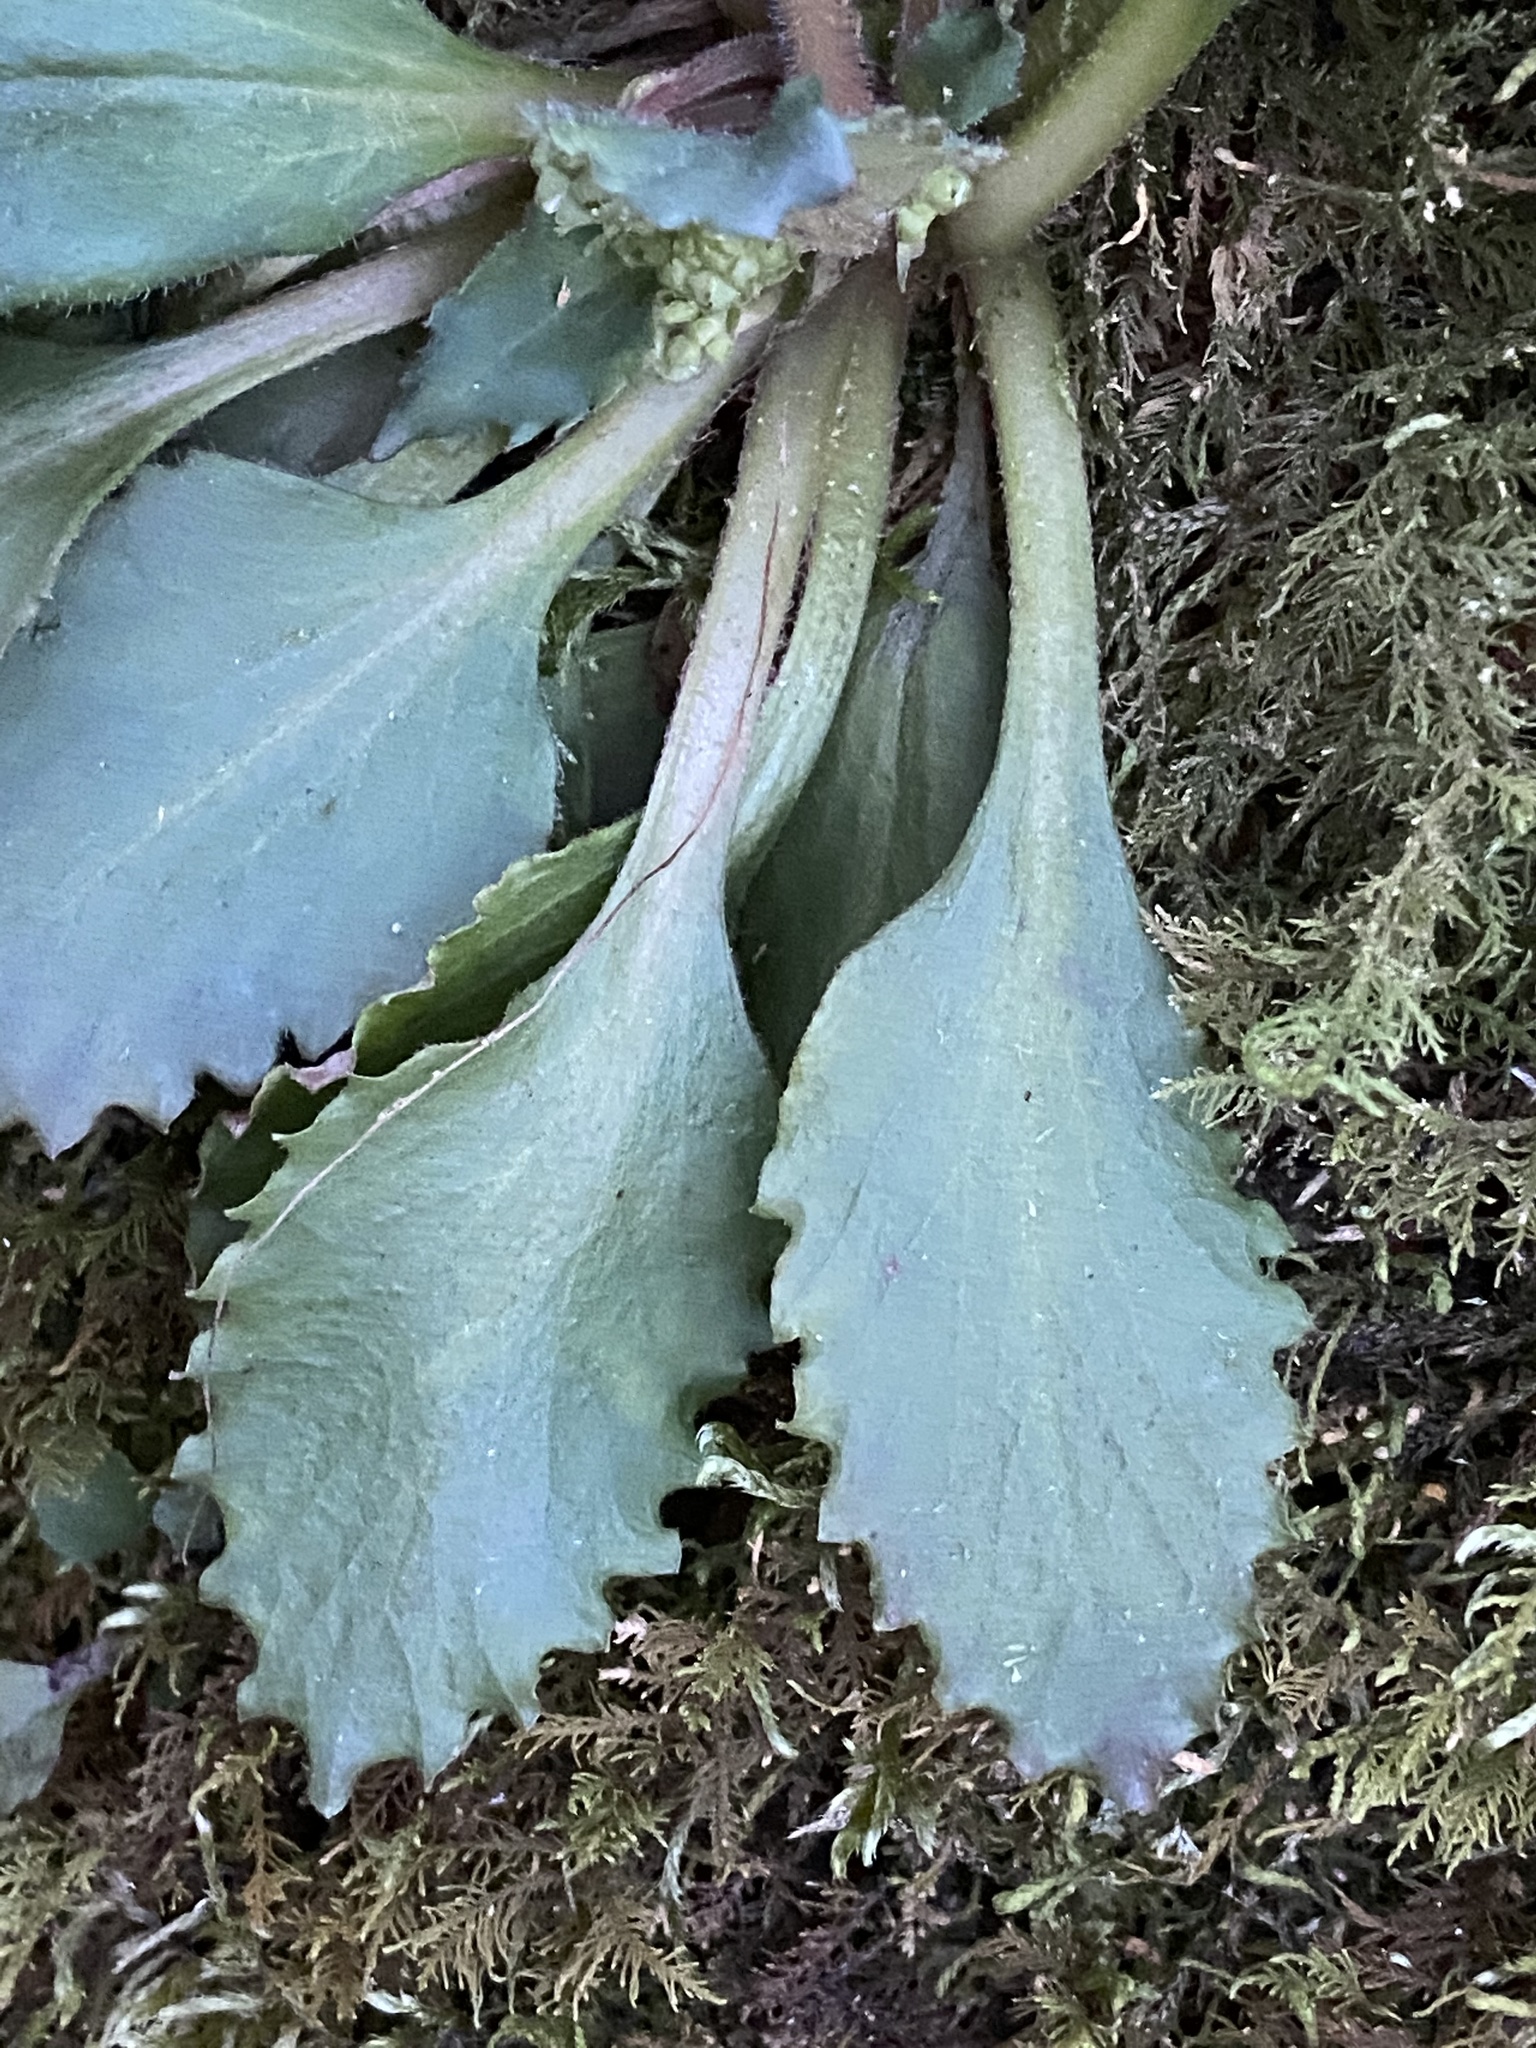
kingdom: Plantae
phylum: Tracheophyta
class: Magnoliopsida
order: Saxifragales
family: Saxifragaceae
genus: Micranthes
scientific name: Micranthes virginiensis
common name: Early saxifrage
